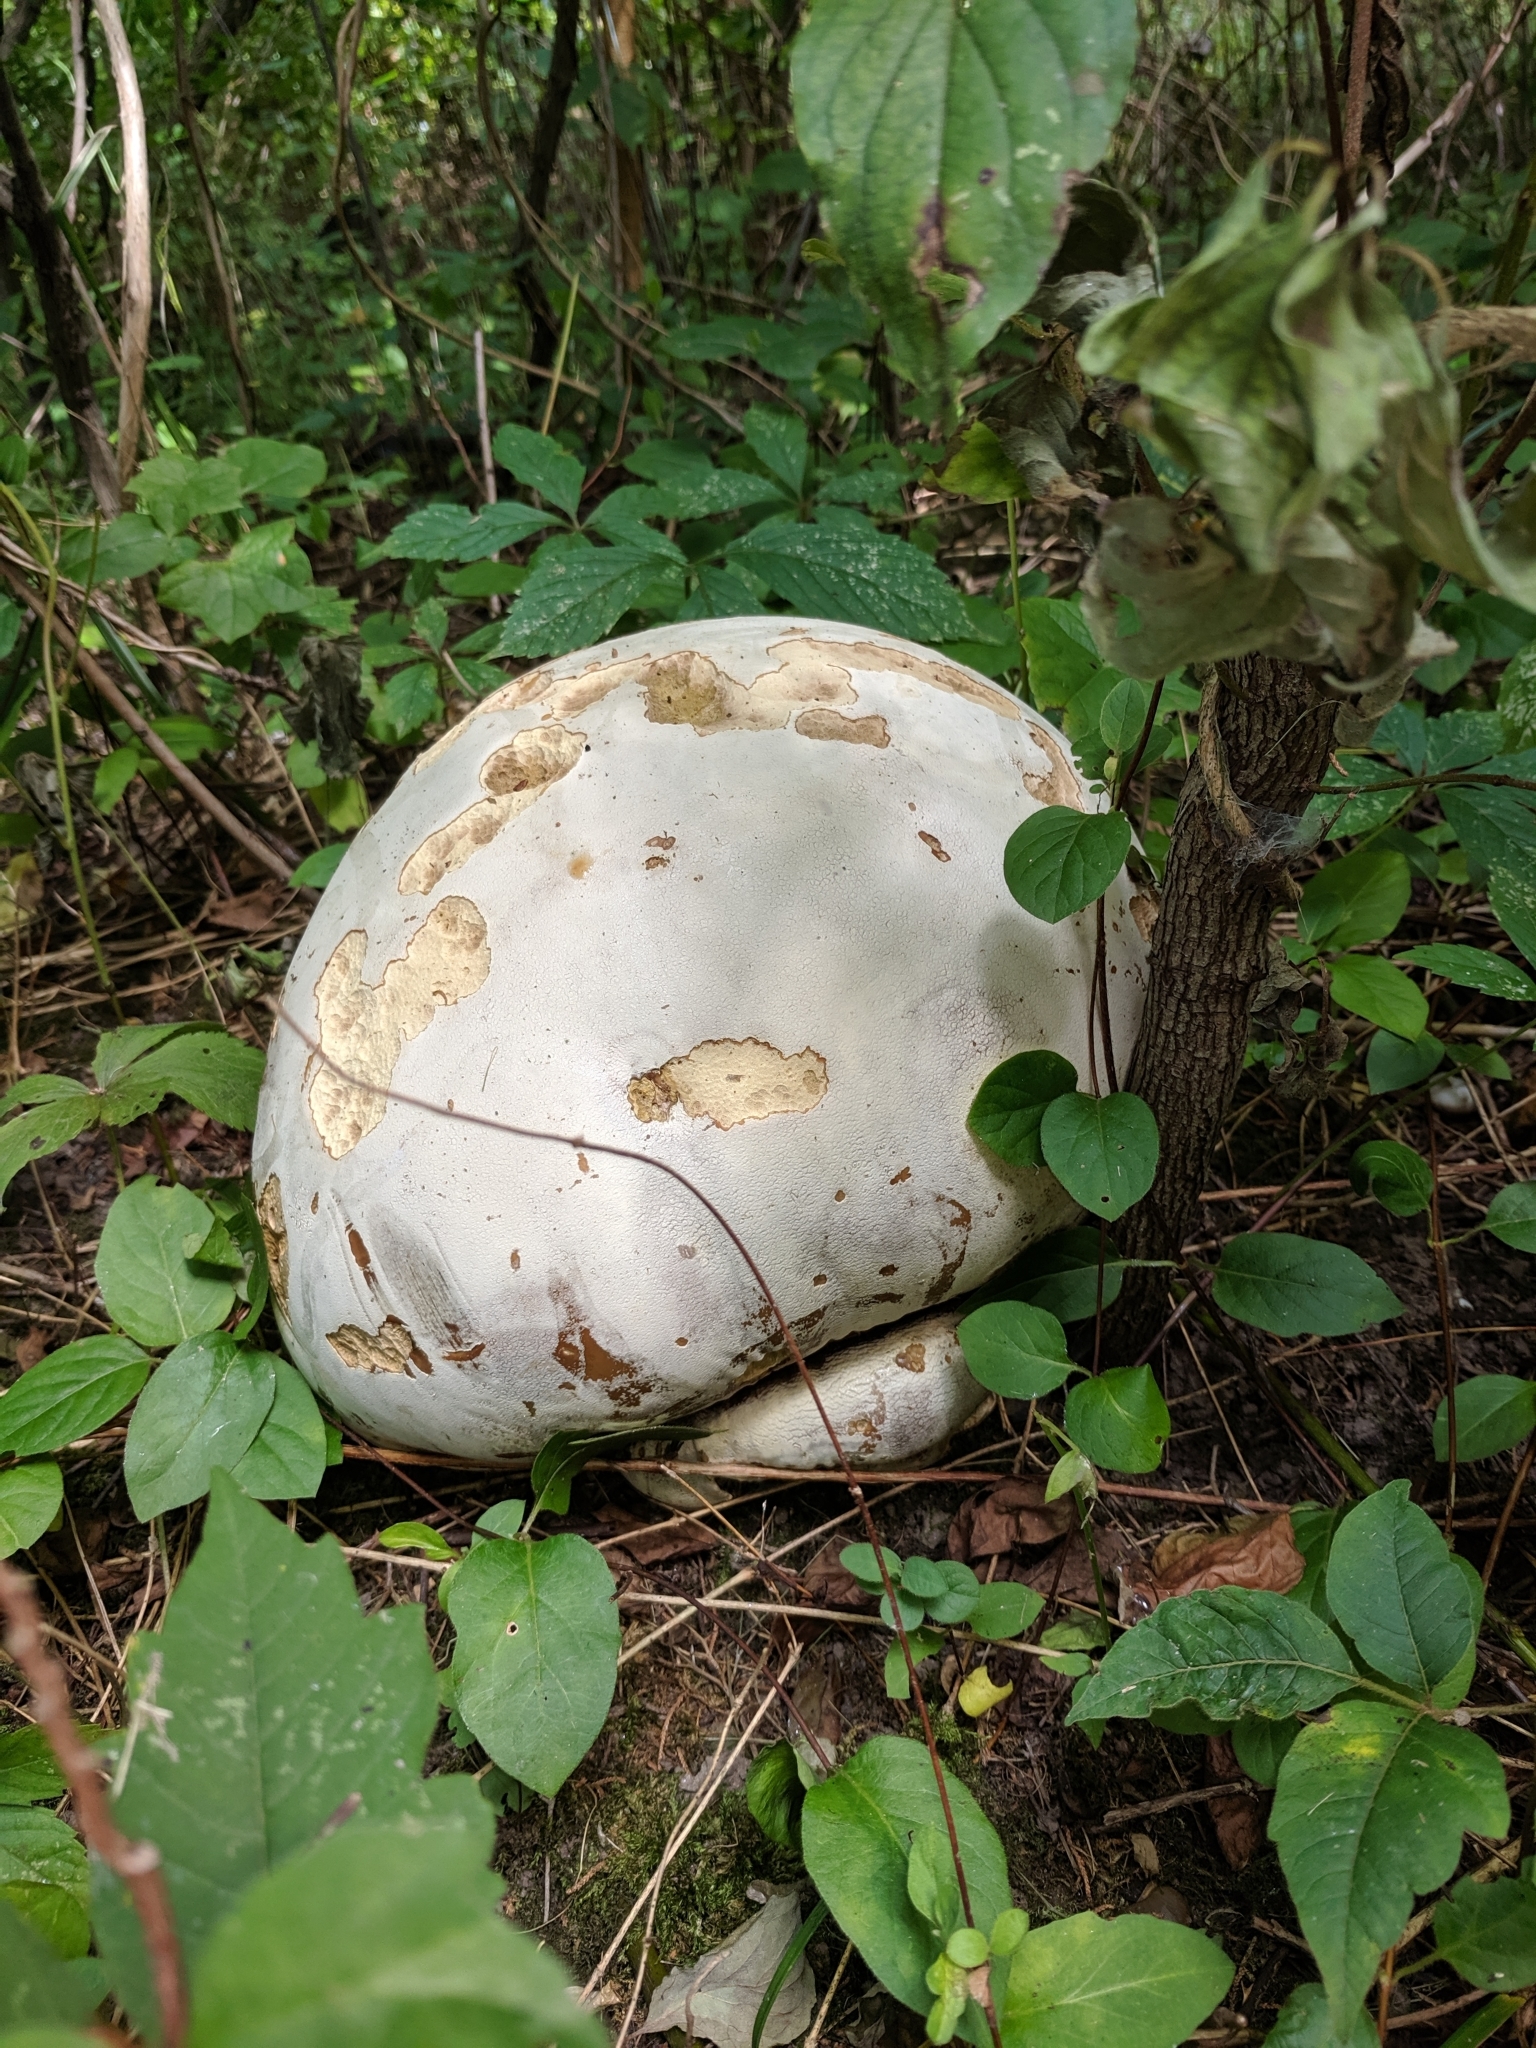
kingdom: Fungi
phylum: Basidiomycota
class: Agaricomycetes
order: Agaricales
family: Lycoperdaceae
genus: Calvatia
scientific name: Calvatia gigantea
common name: Giant puffball
